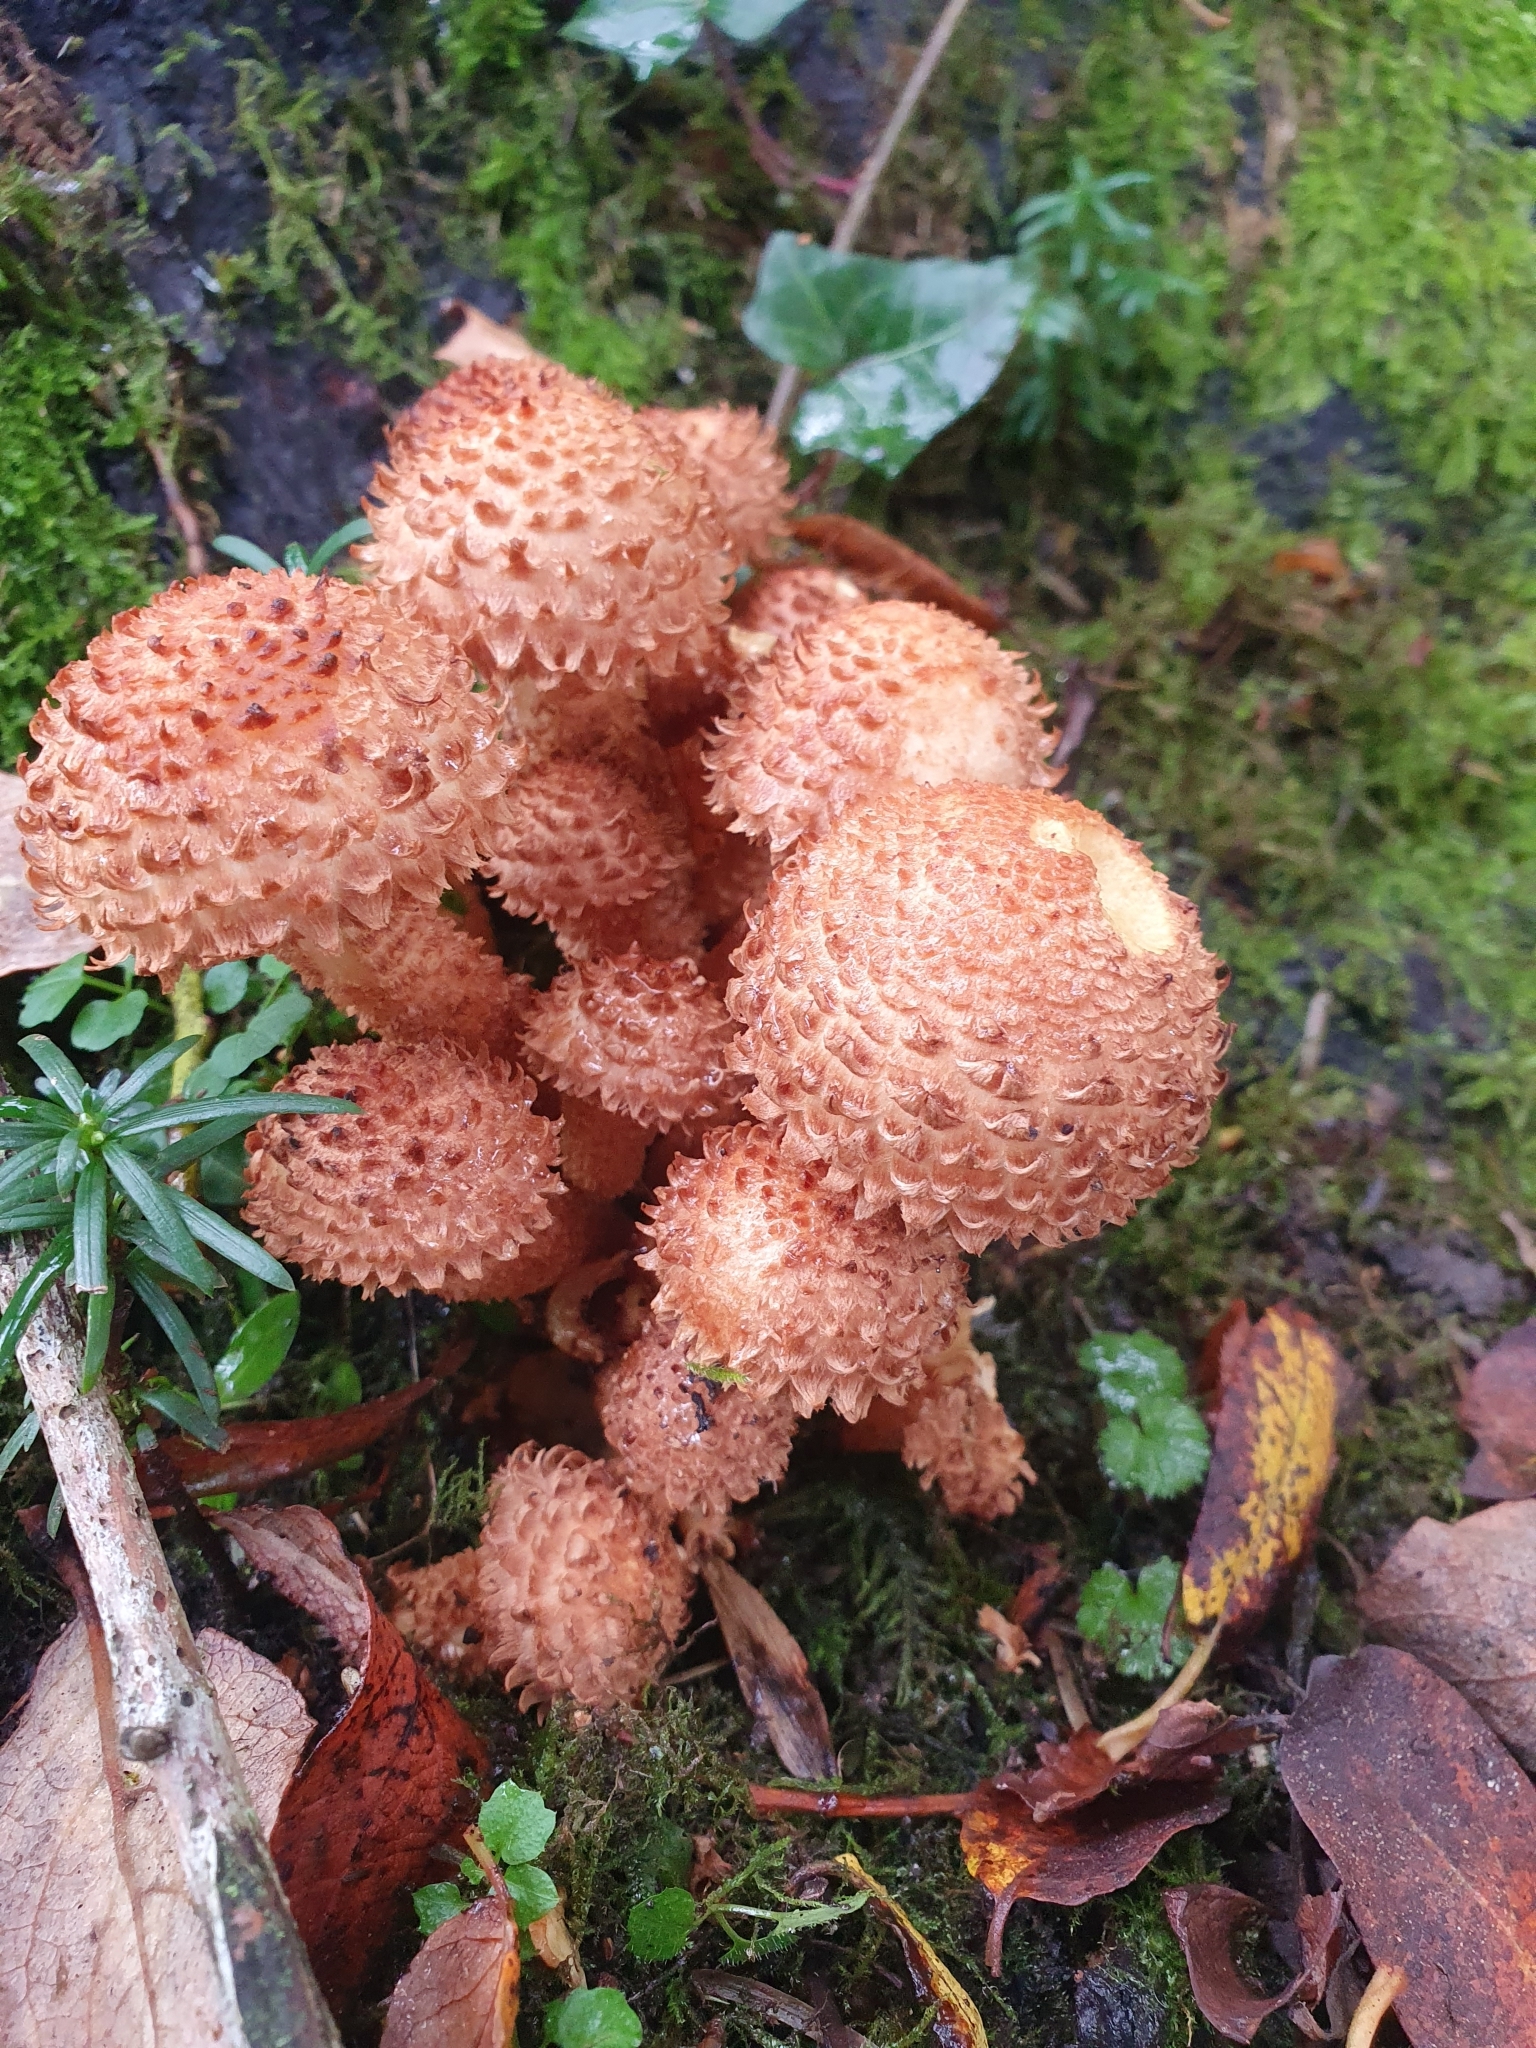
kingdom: Fungi
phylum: Basidiomycota
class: Agaricomycetes
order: Agaricales
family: Strophariaceae
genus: Pholiota
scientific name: Pholiota squarrosa
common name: Shaggy pholiota
